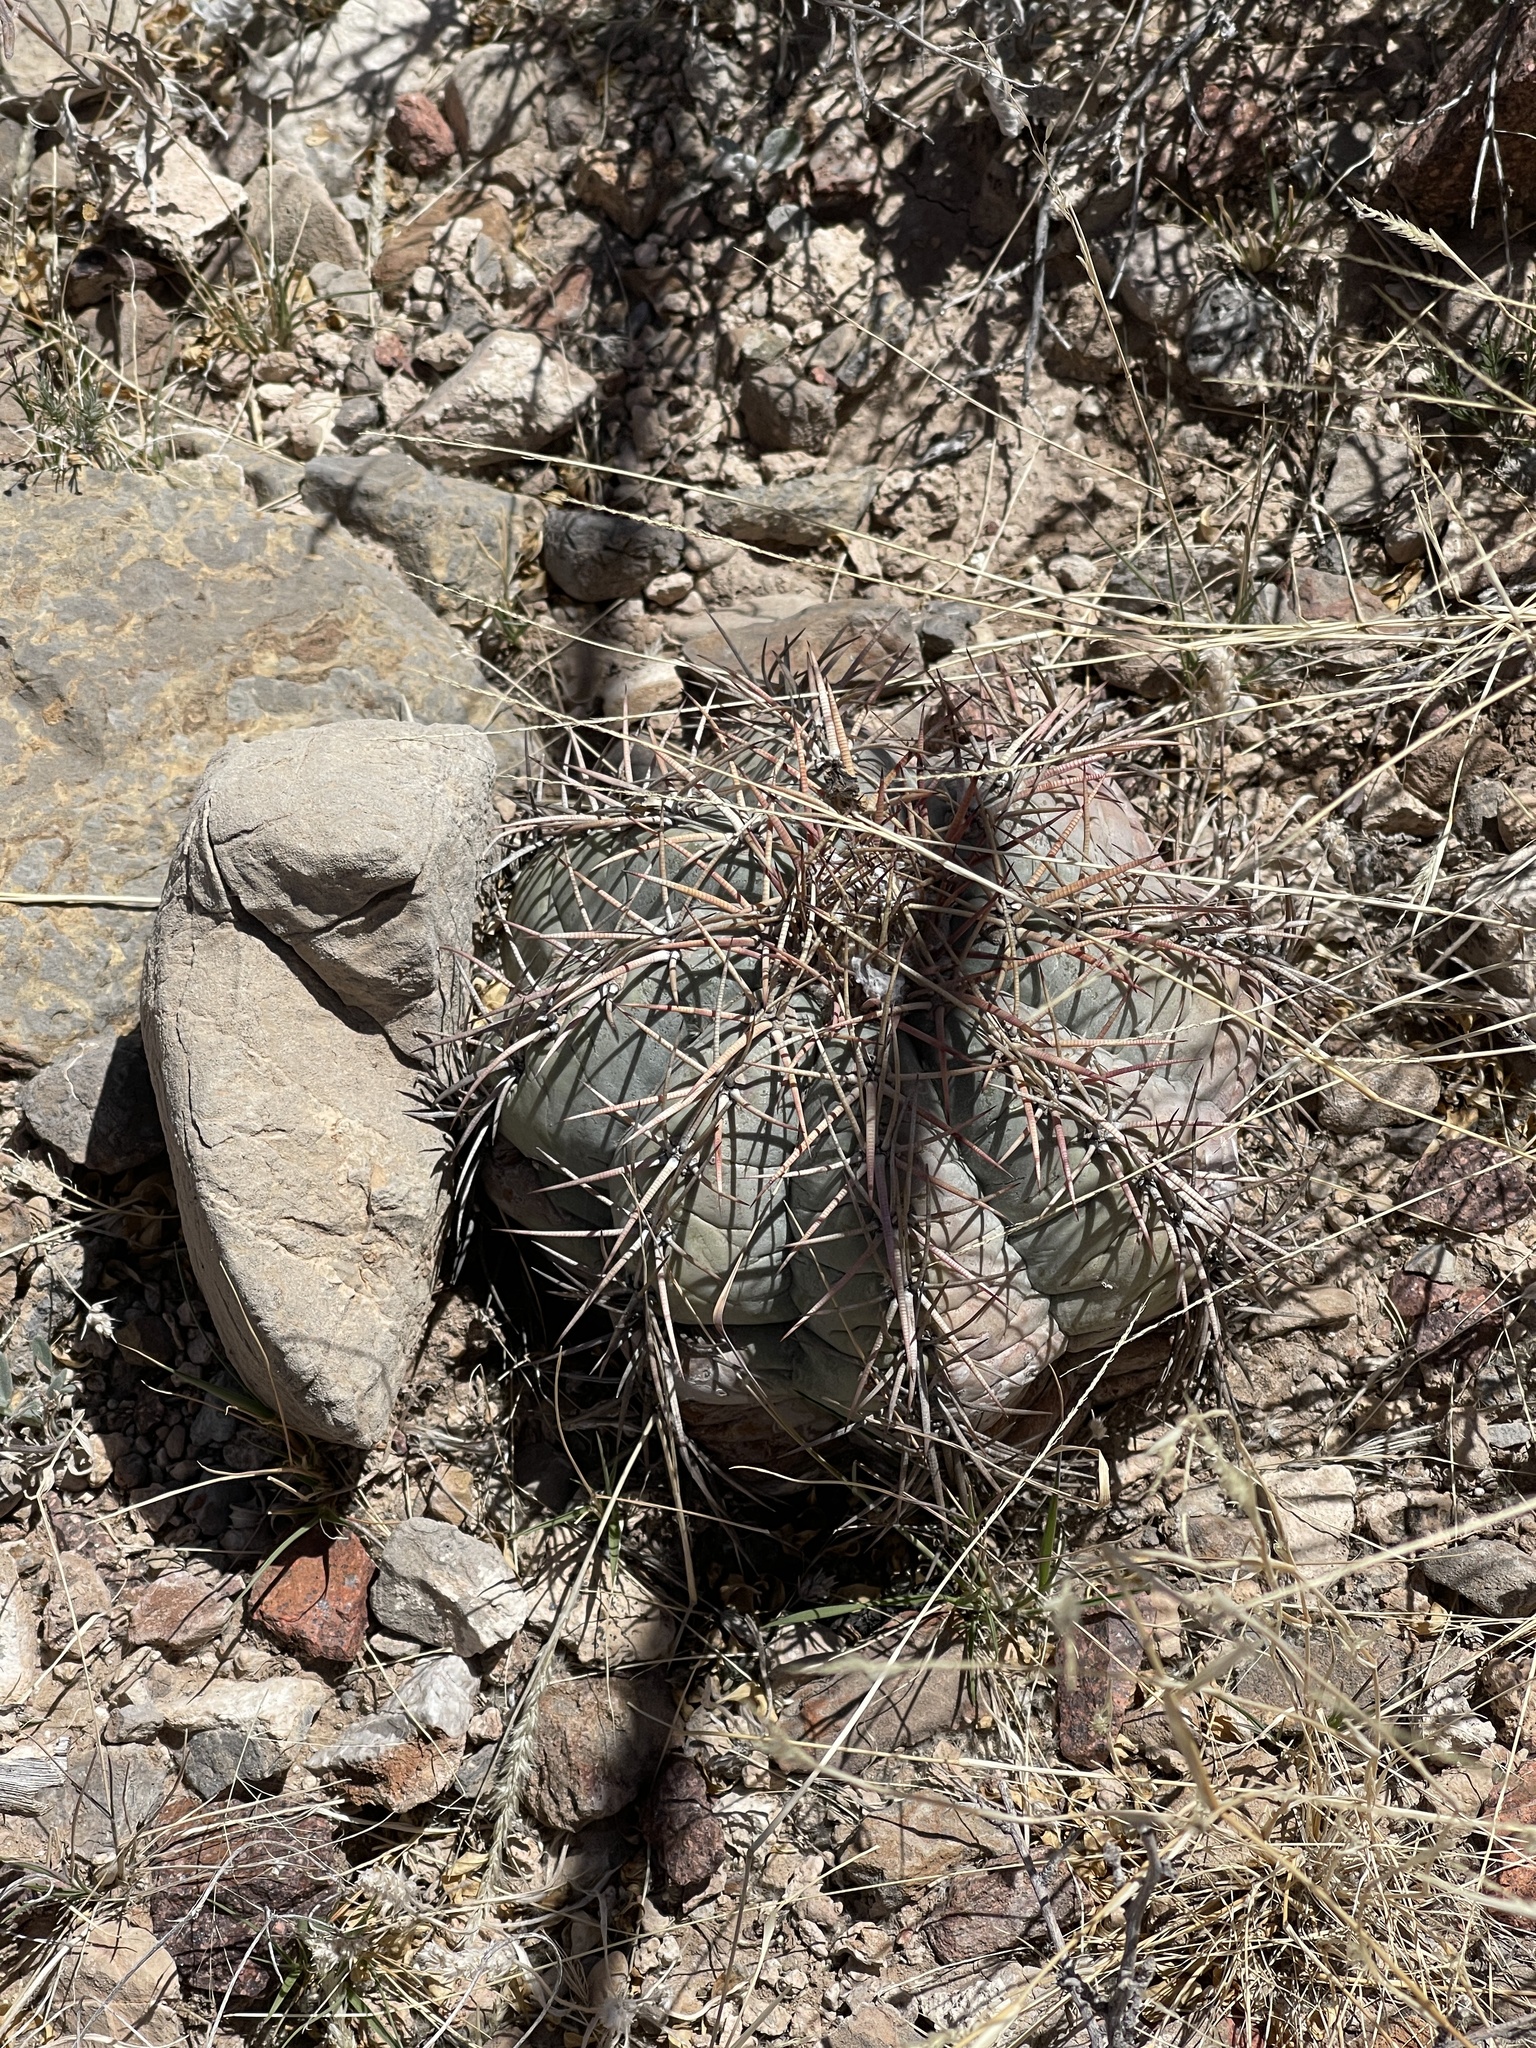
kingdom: Plantae
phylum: Tracheophyta
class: Magnoliopsida
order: Caryophyllales
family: Cactaceae
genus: Echinocactus
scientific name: Echinocactus horizonthalonius
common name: Devilshead
